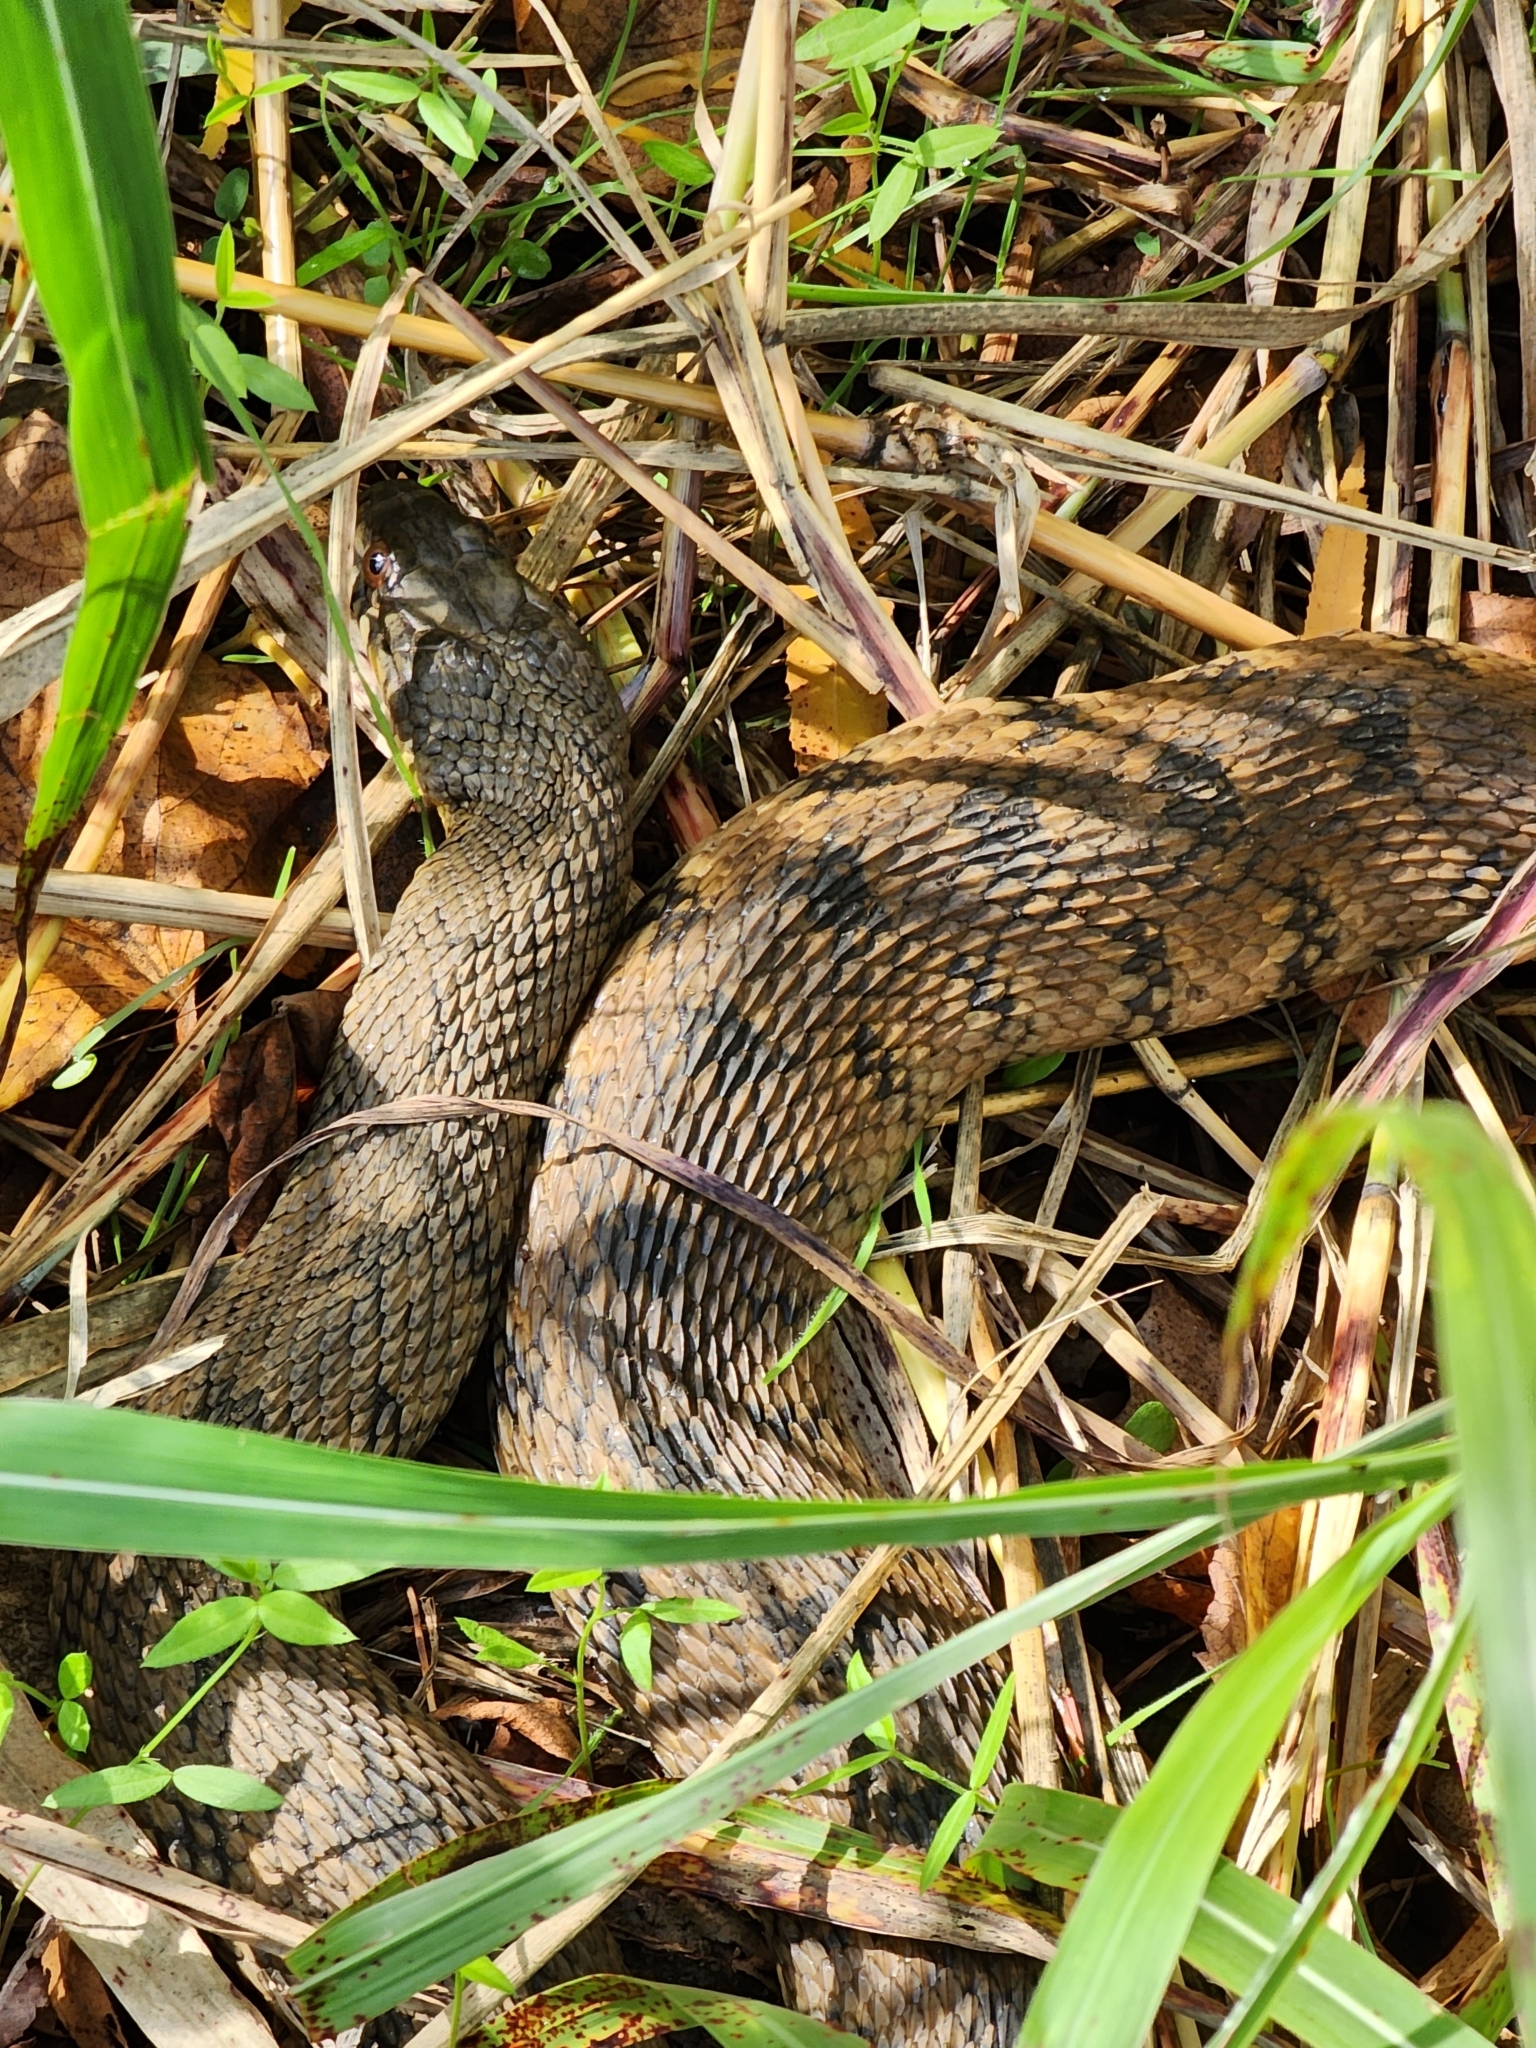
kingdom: Animalia
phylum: Chordata
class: Squamata
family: Colubridae
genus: Nerodia
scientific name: Nerodia rhombifer
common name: Diamondback water snake
